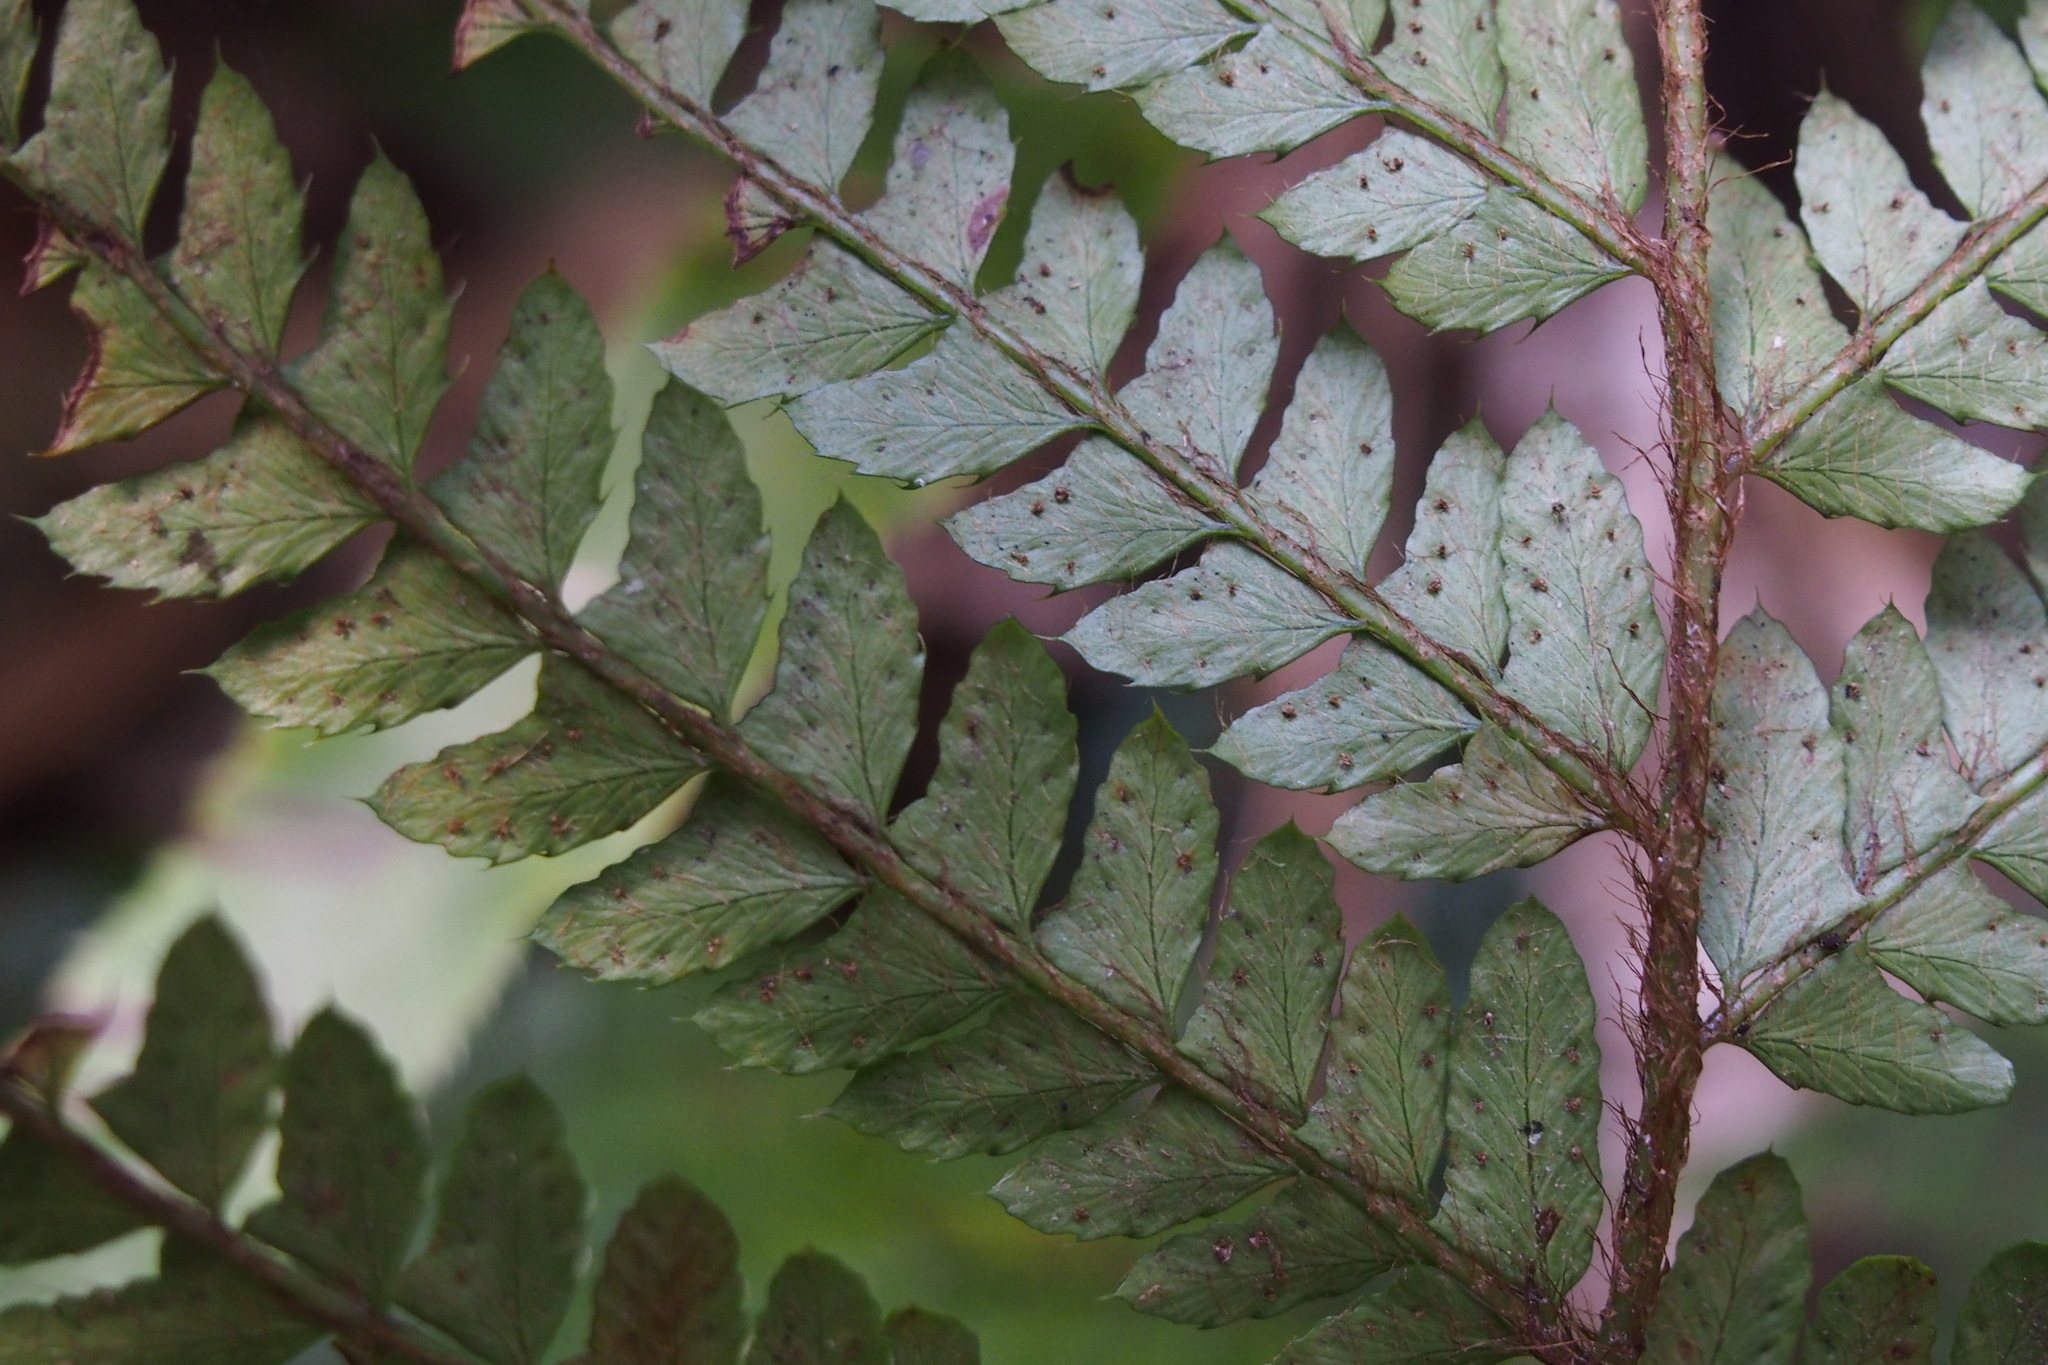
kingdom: Plantae
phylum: Tracheophyta
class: Polypodiopsida
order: Polypodiales
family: Dryopteridaceae
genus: Polystichum
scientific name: Polystichum luctuosum
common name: Korean rockfern
